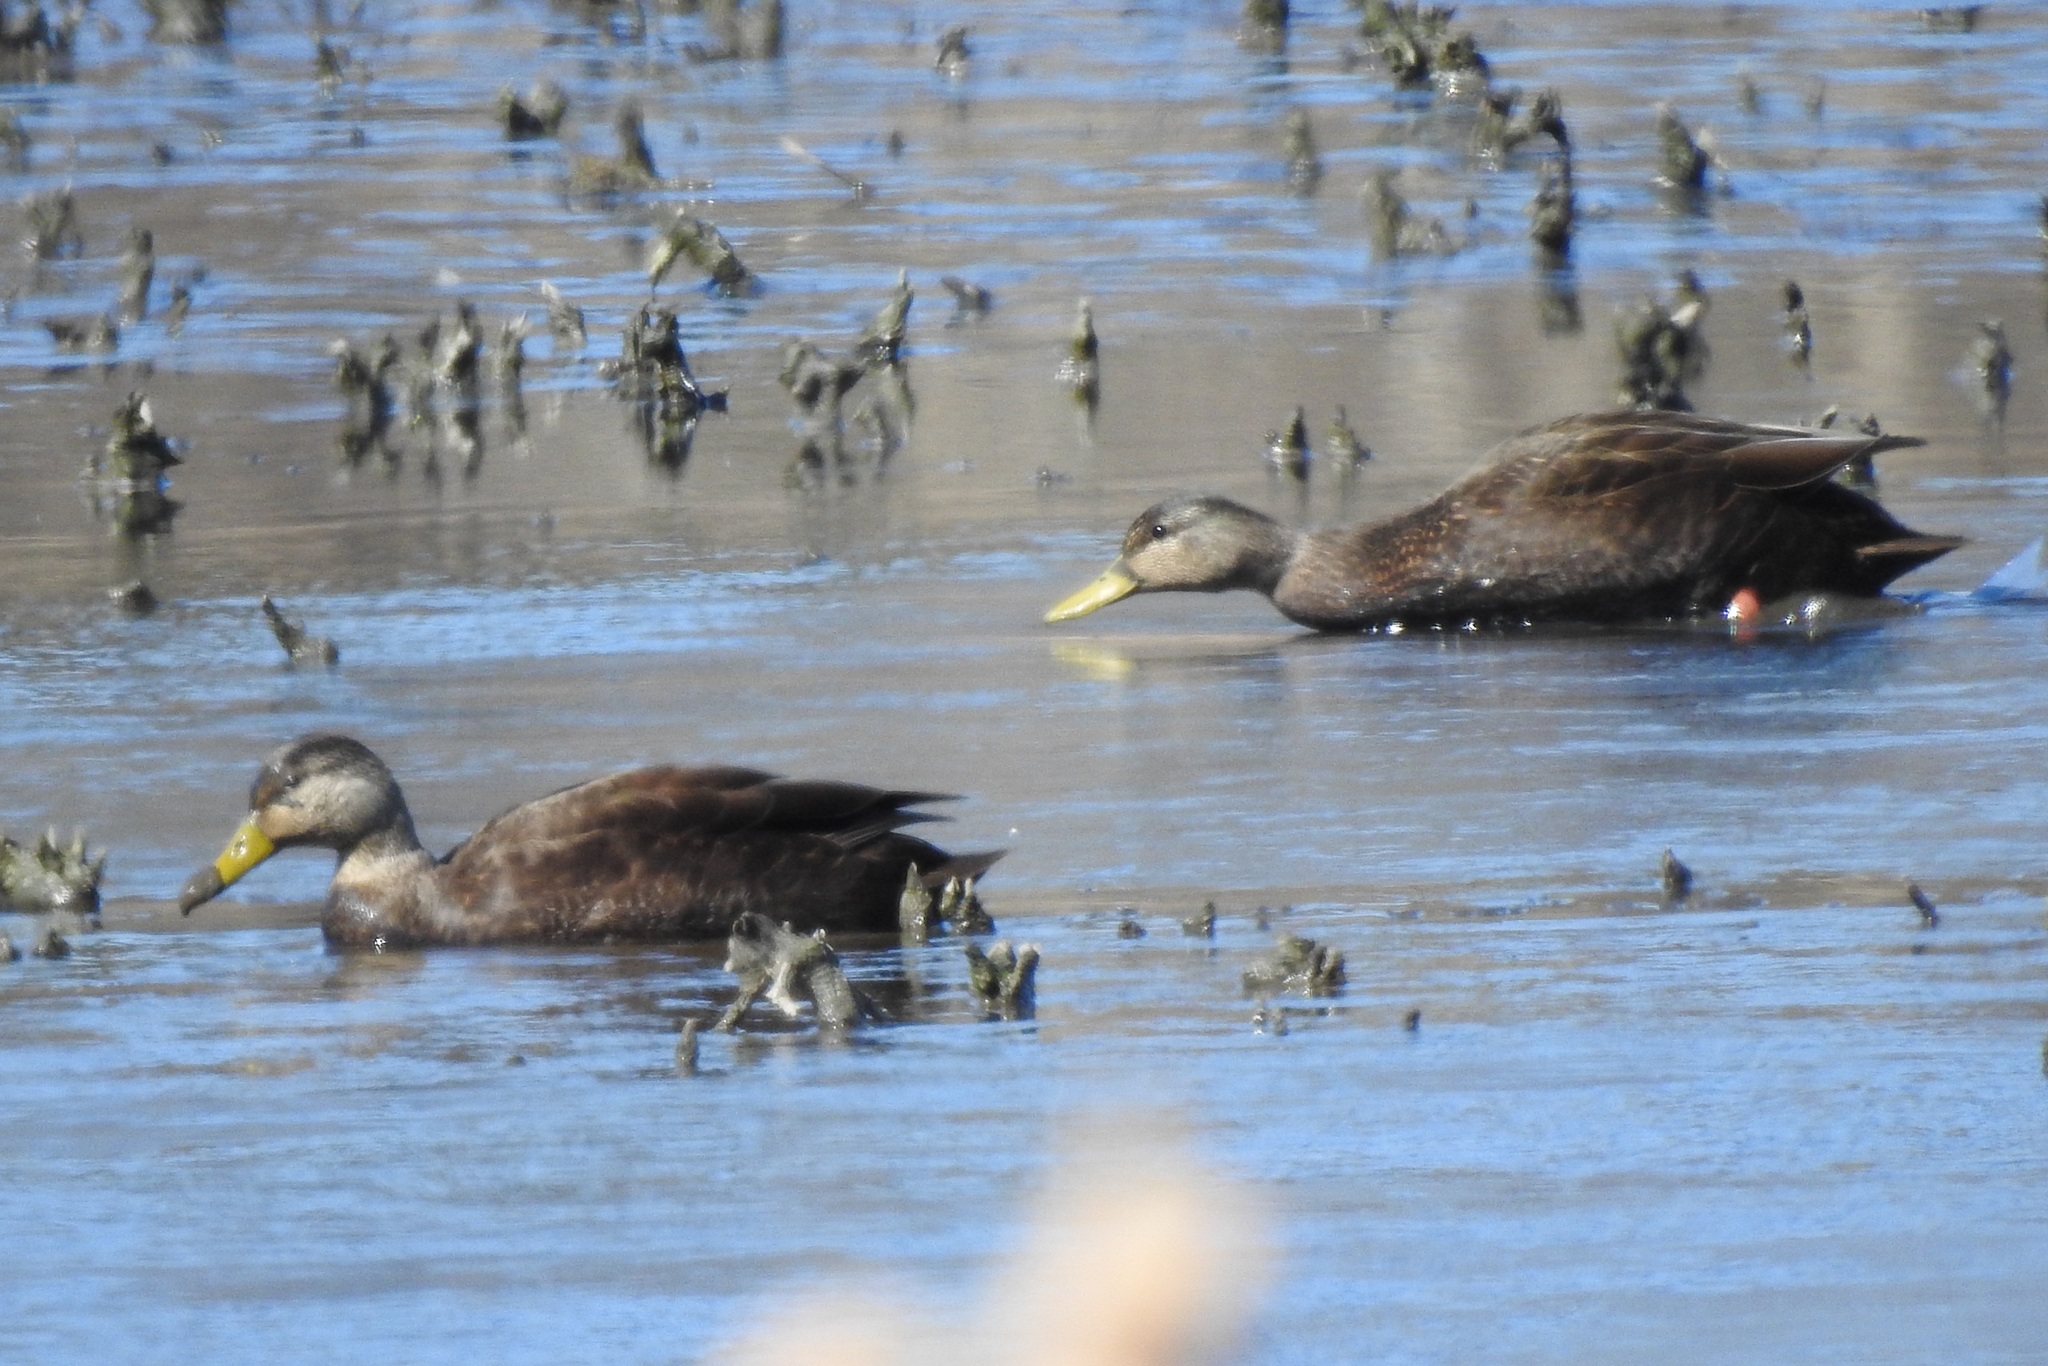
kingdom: Animalia
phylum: Chordata
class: Aves
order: Anseriformes
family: Anatidae
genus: Anas
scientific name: Anas rubripes
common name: American black duck
